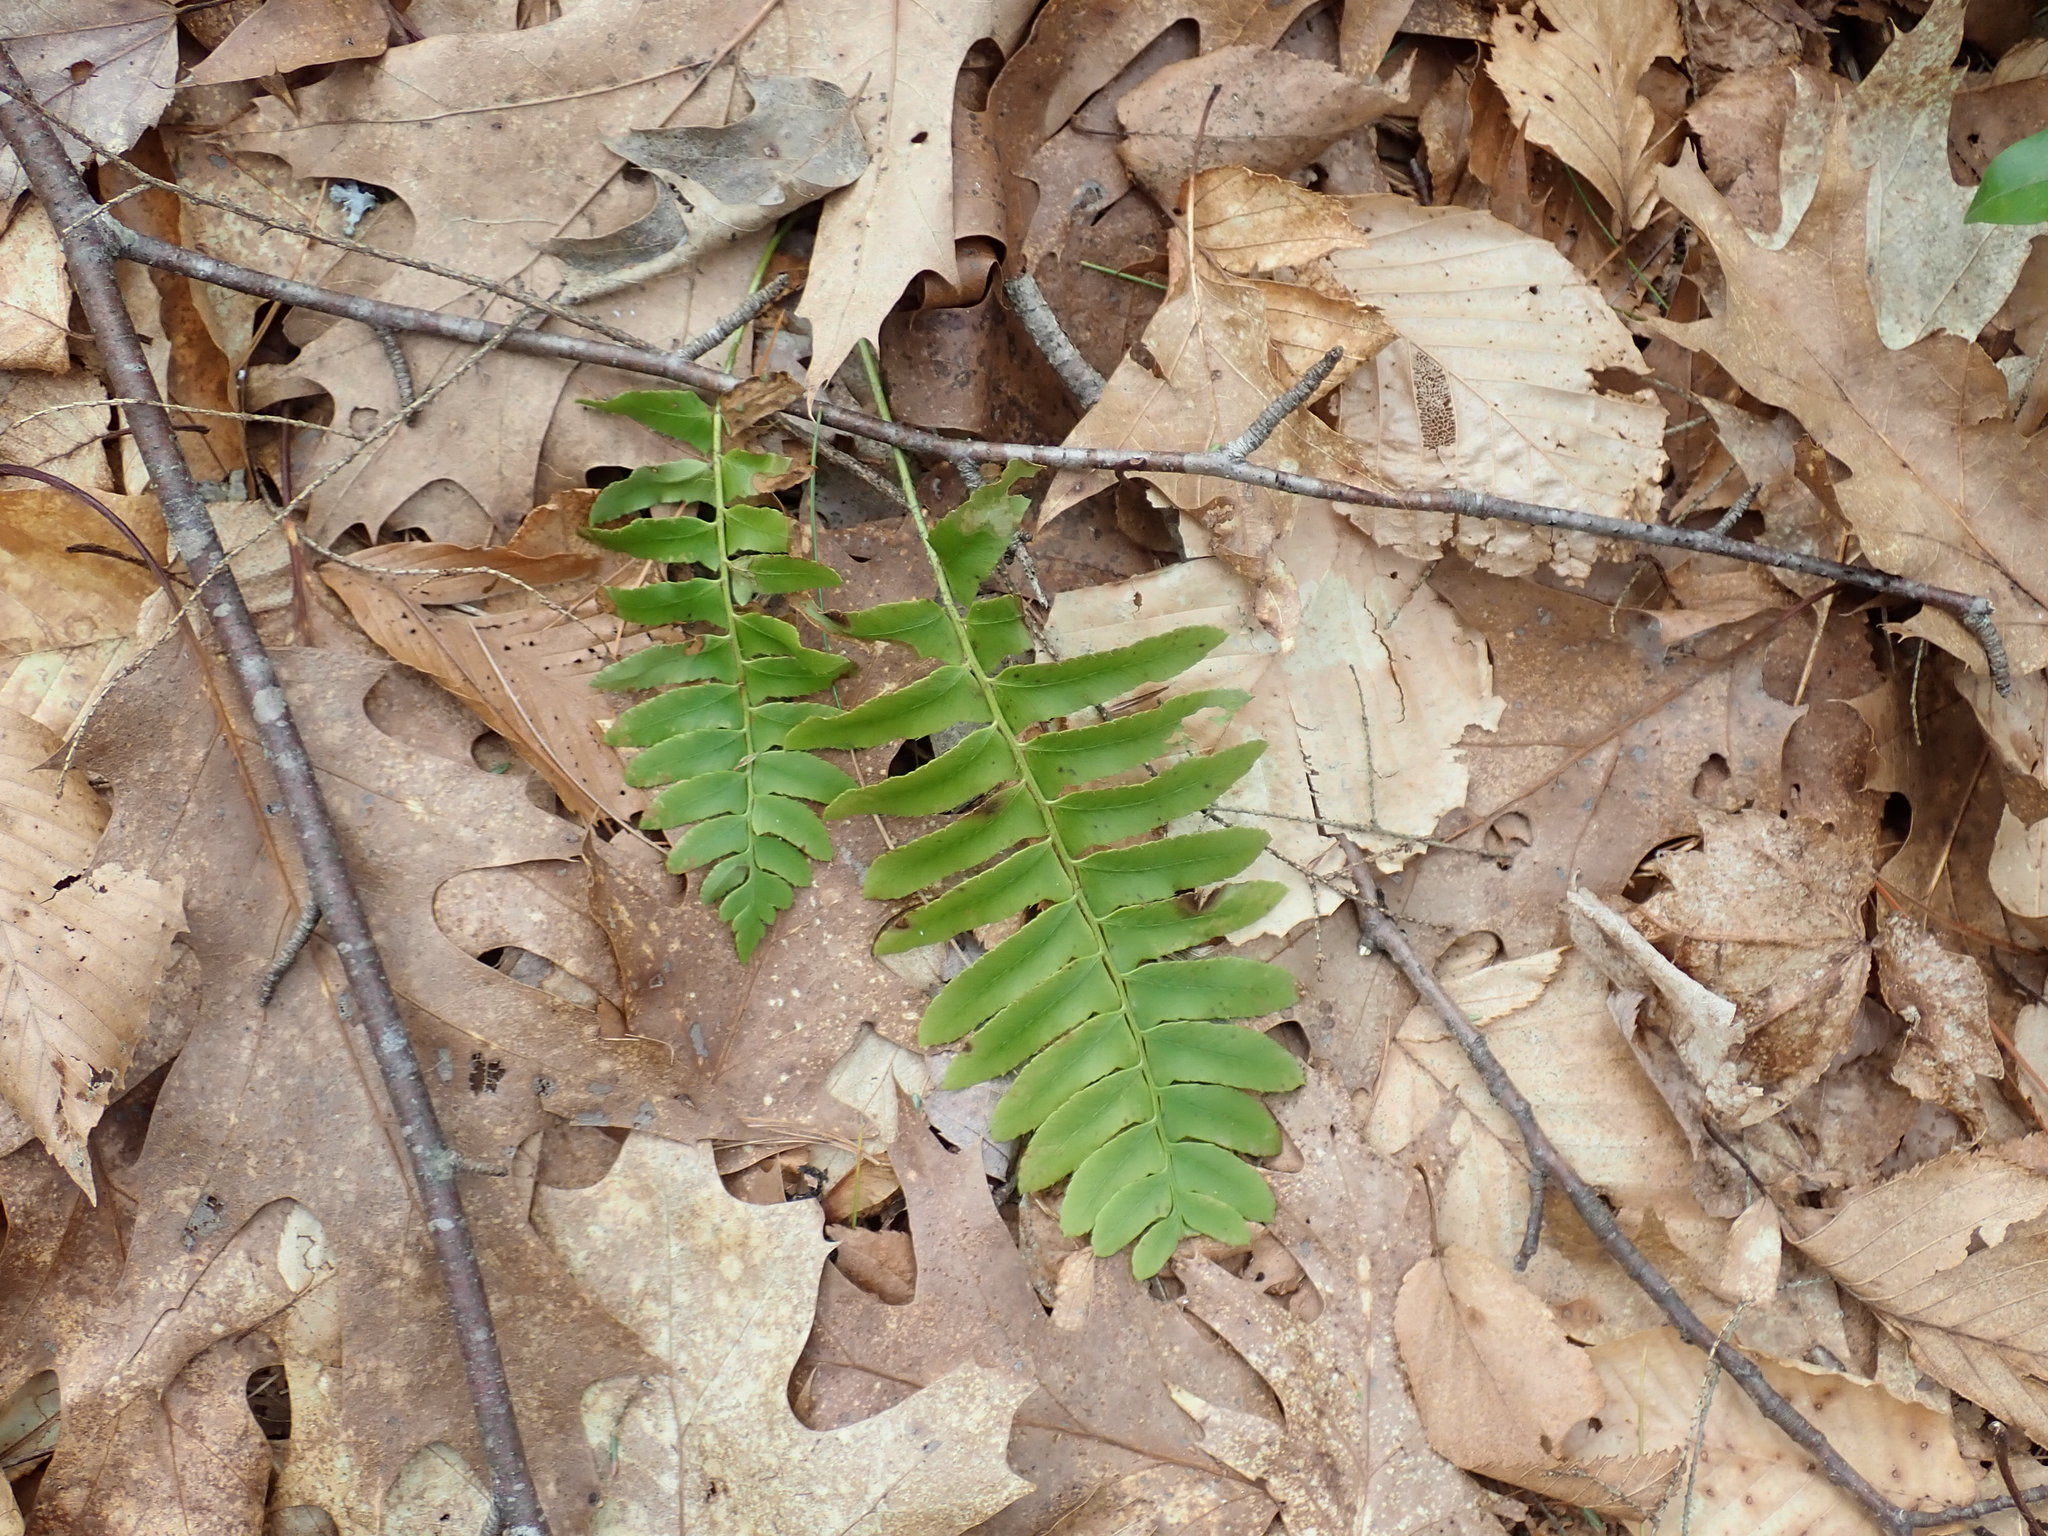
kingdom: Plantae
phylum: Tracheophyta
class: Polypodiopsida
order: Polypodiales
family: Dryopteridaceae
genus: Polystichum
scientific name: Polystichum acrostichoides
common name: Christmas fern
